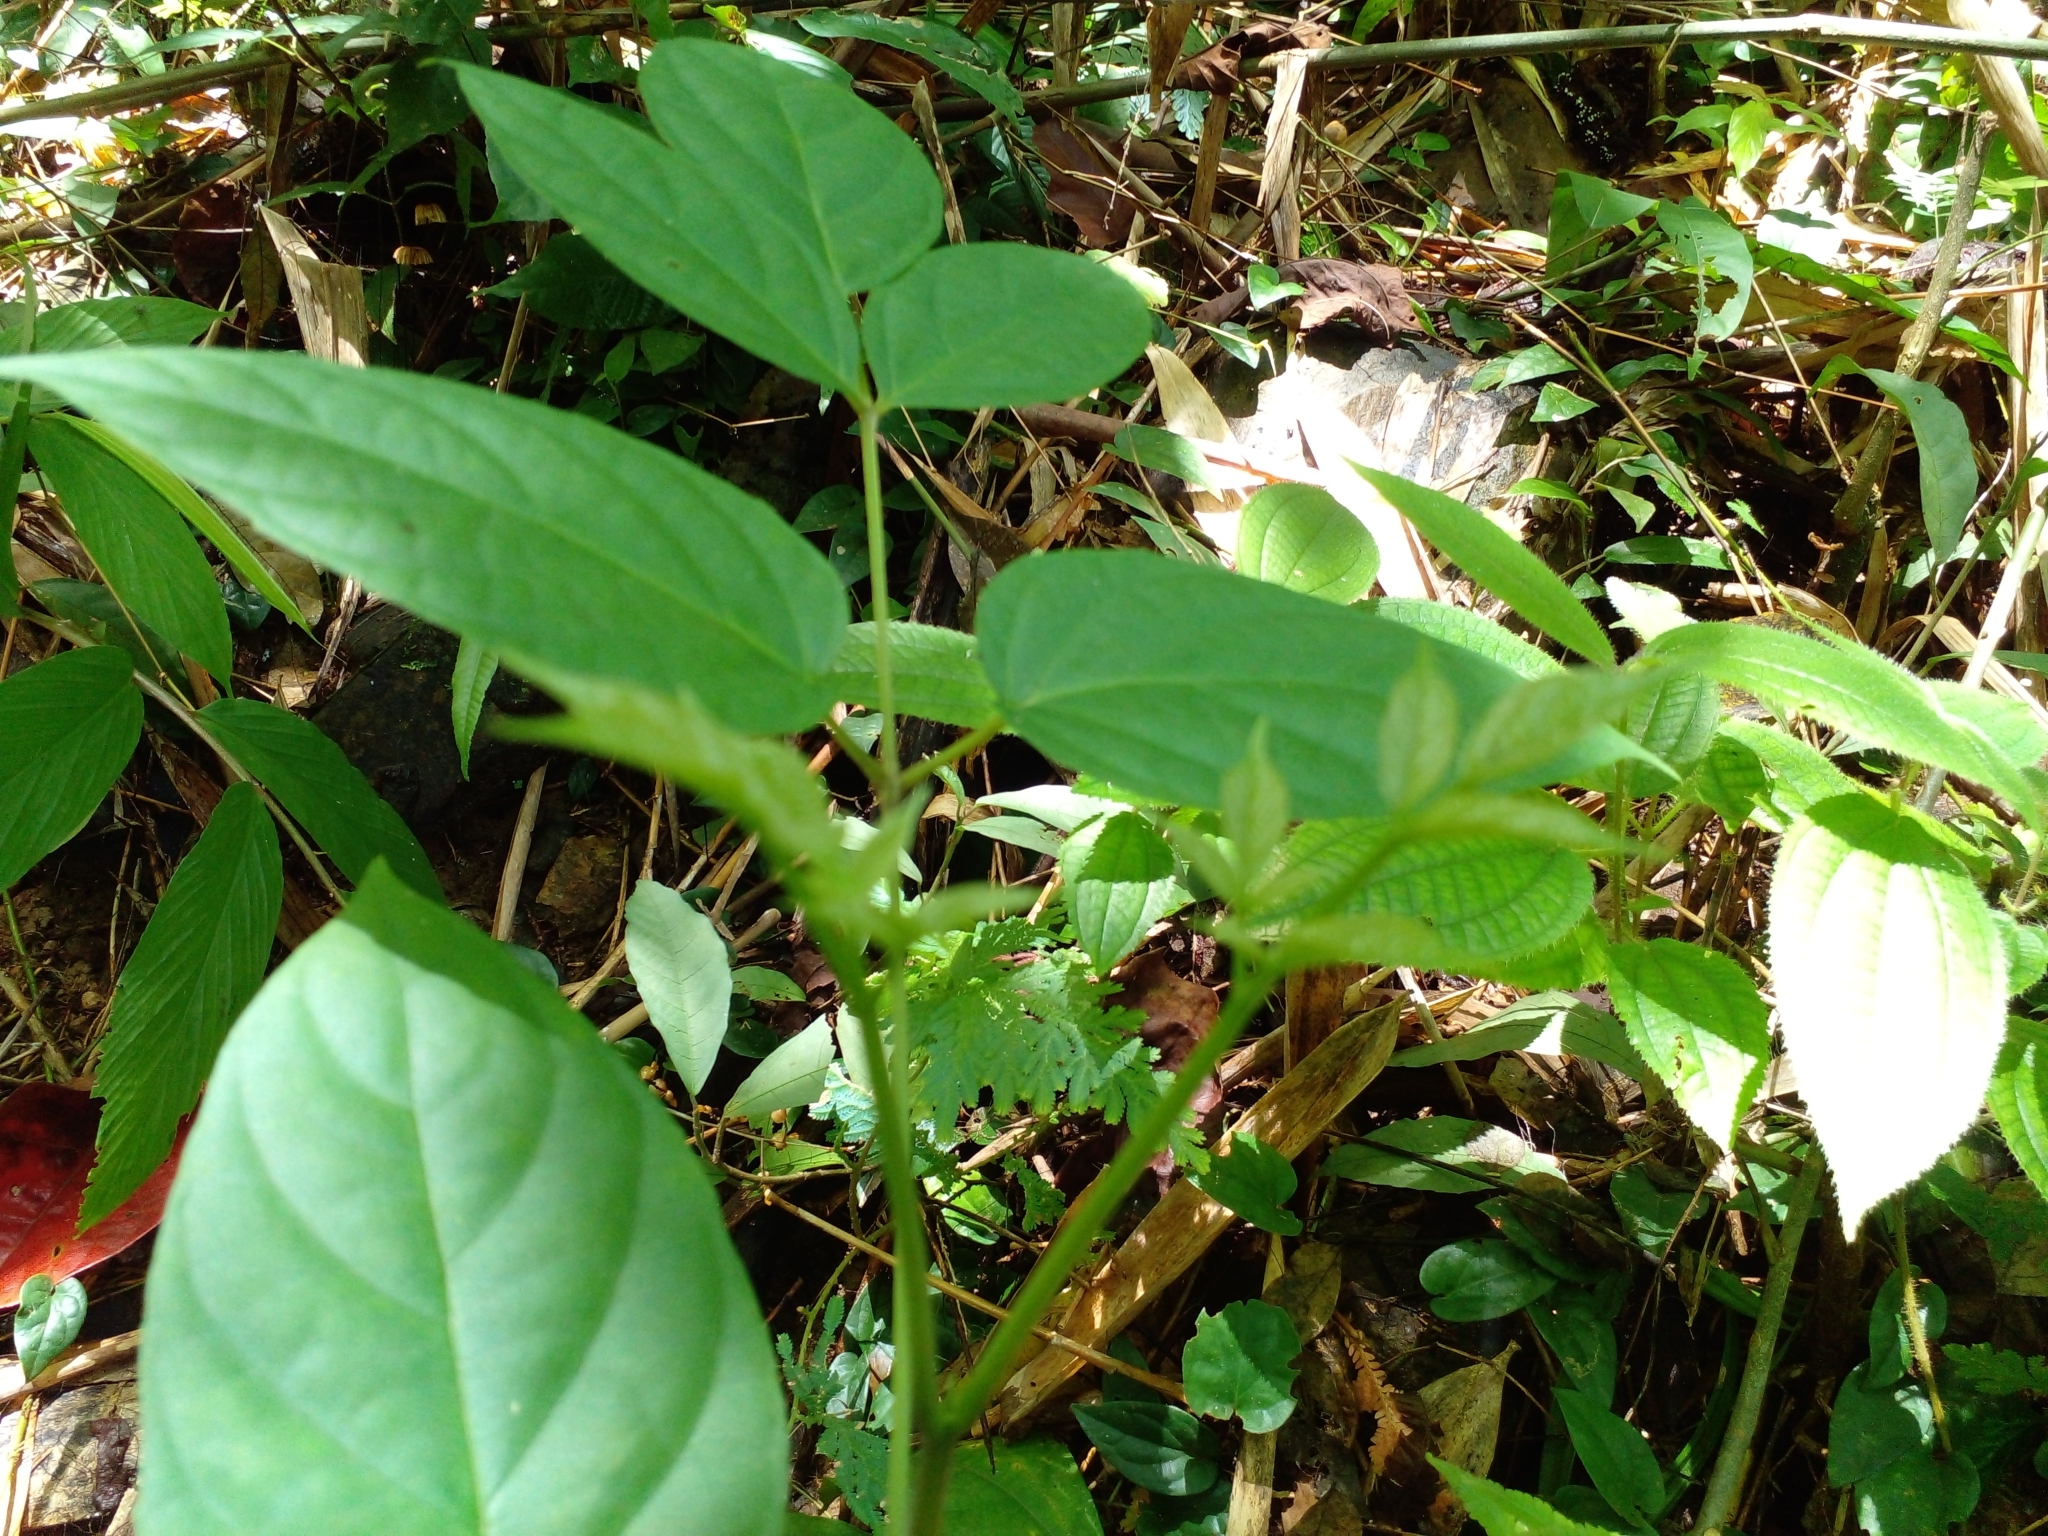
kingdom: Plantae
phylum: Tracheophyta
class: Magnoliopsida
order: Lamiales
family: Bignoniaceae
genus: Oroxylum
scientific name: Oroxylum indicum
